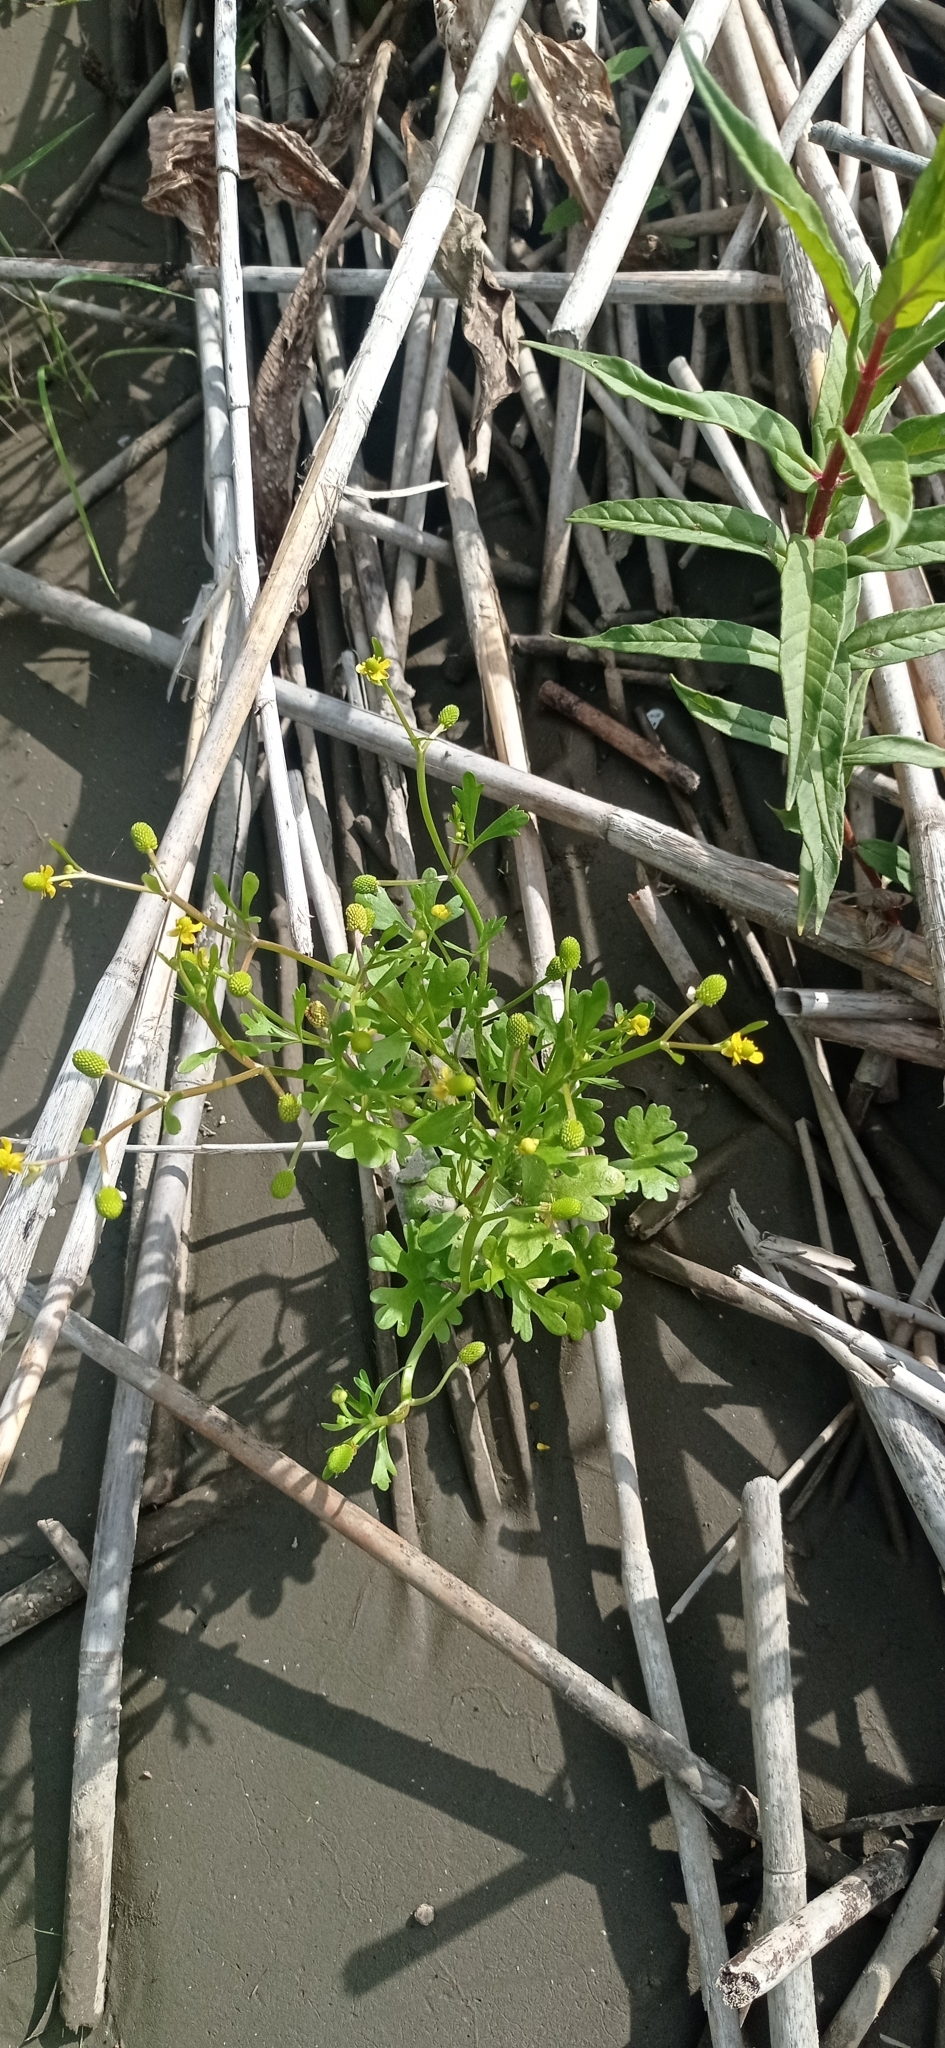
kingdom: Plantae
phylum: Tracheophyta
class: Magnoliopsida
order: Ranunculales
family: Ranunculaceae
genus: Ranunculus
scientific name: Ranunculus sceleratus
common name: Celery-leaved buttercup
